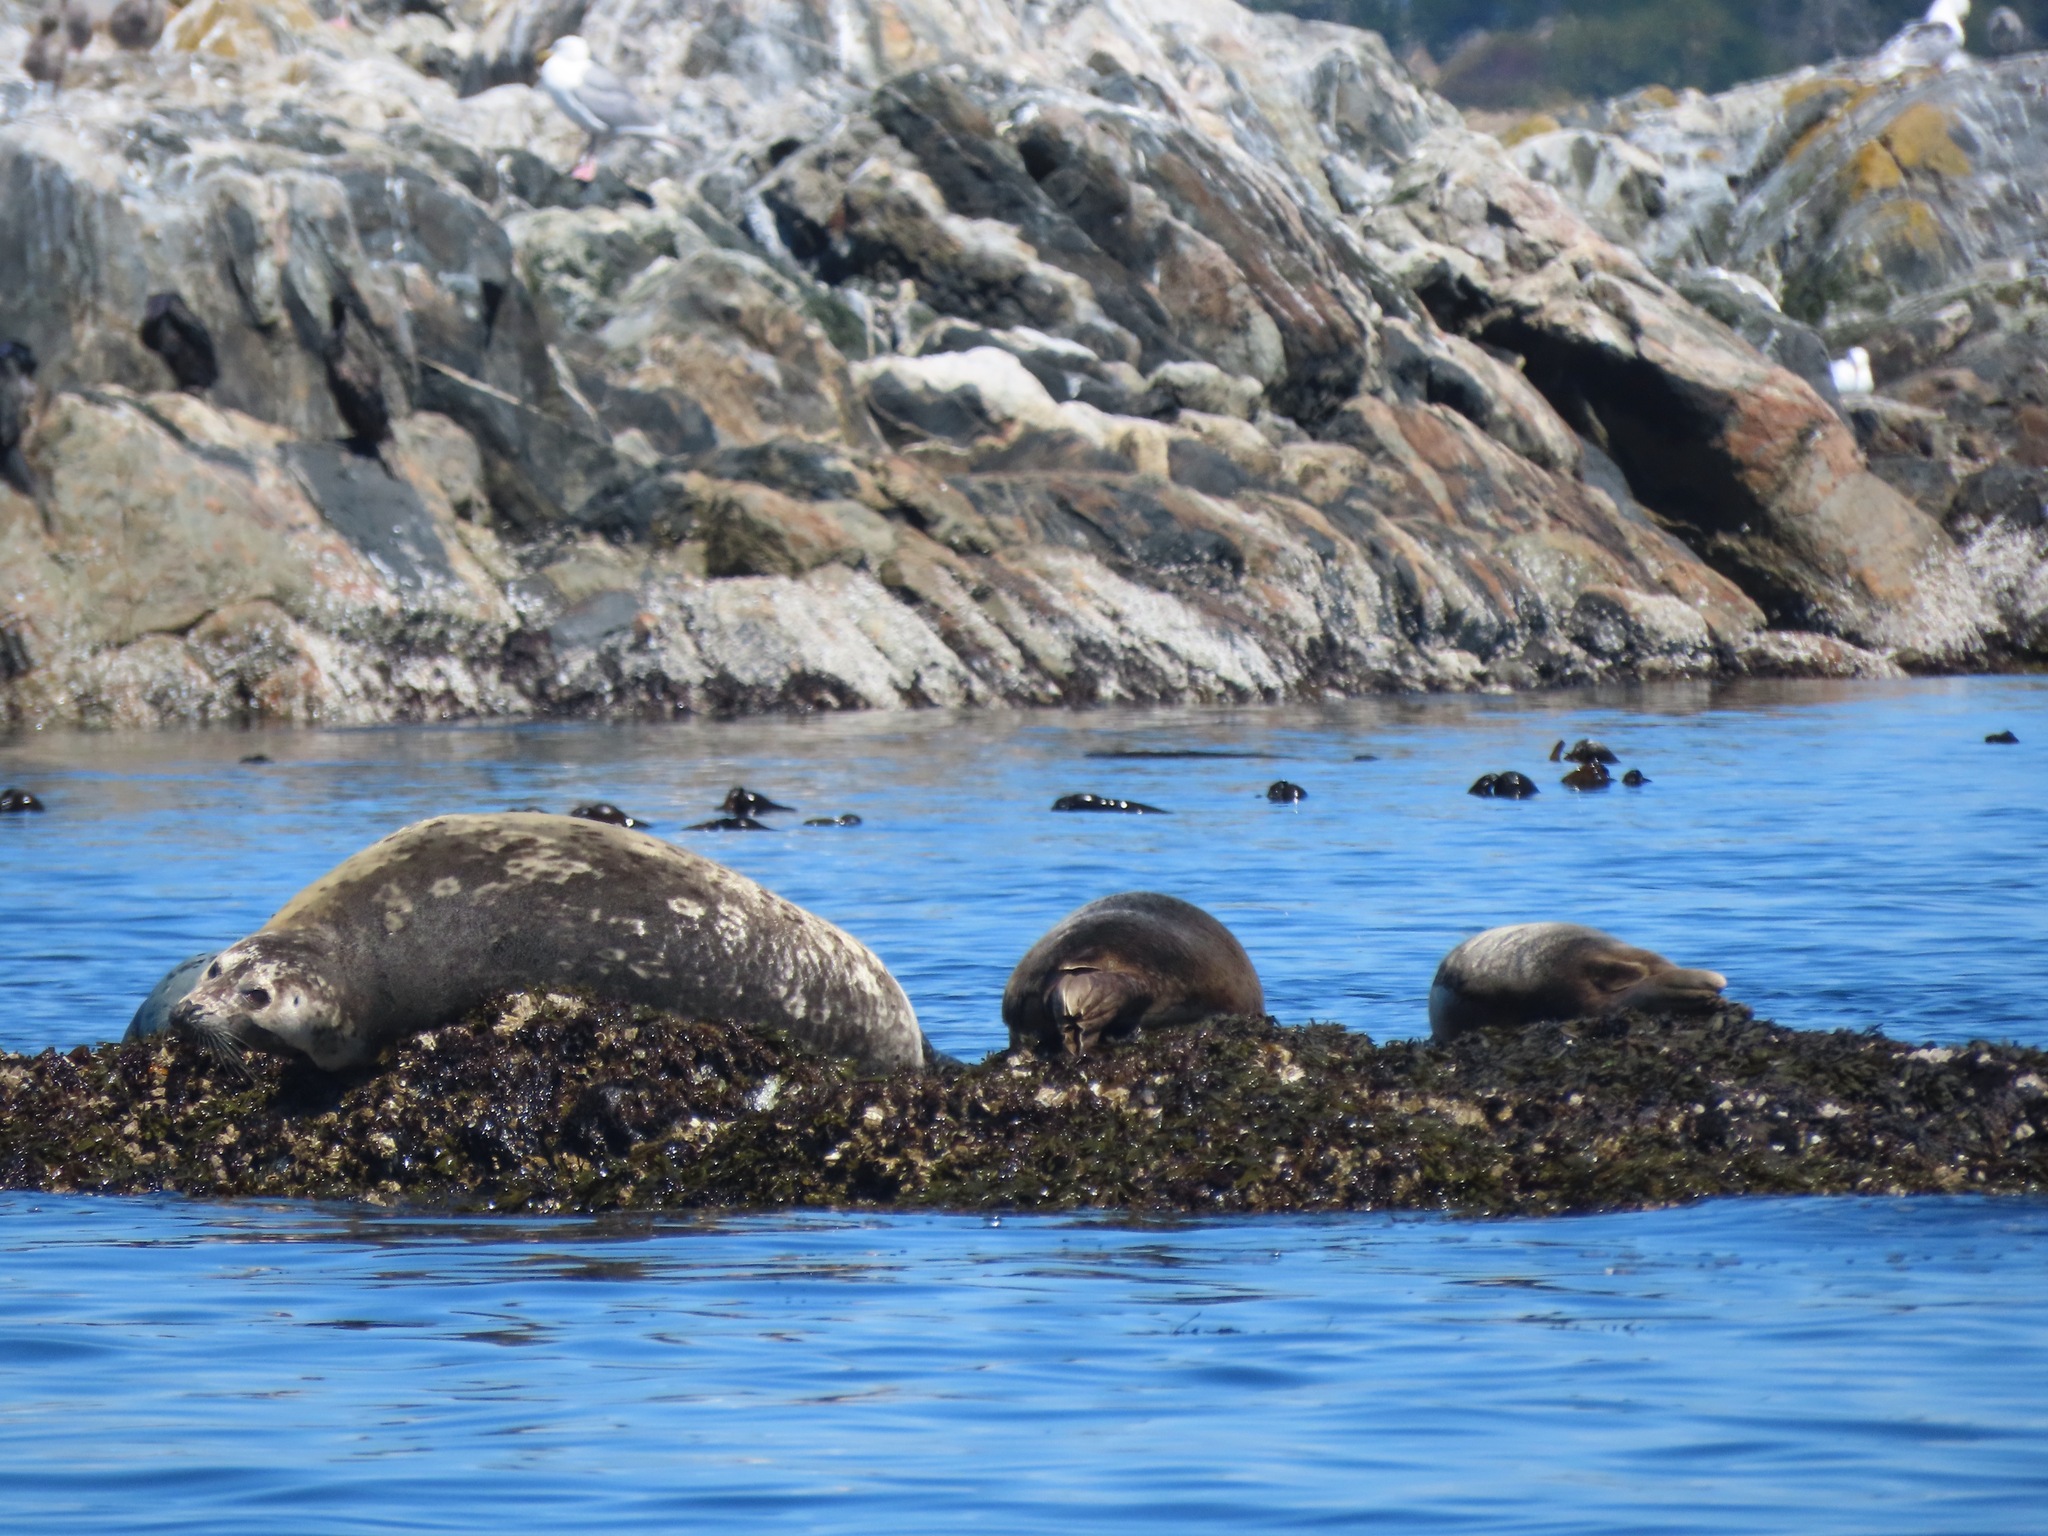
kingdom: Animalia
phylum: Chordata
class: Mammalia
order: Carnivora
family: Phocidae
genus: Phoca
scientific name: Phoca vitulina
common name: Harbor seal
